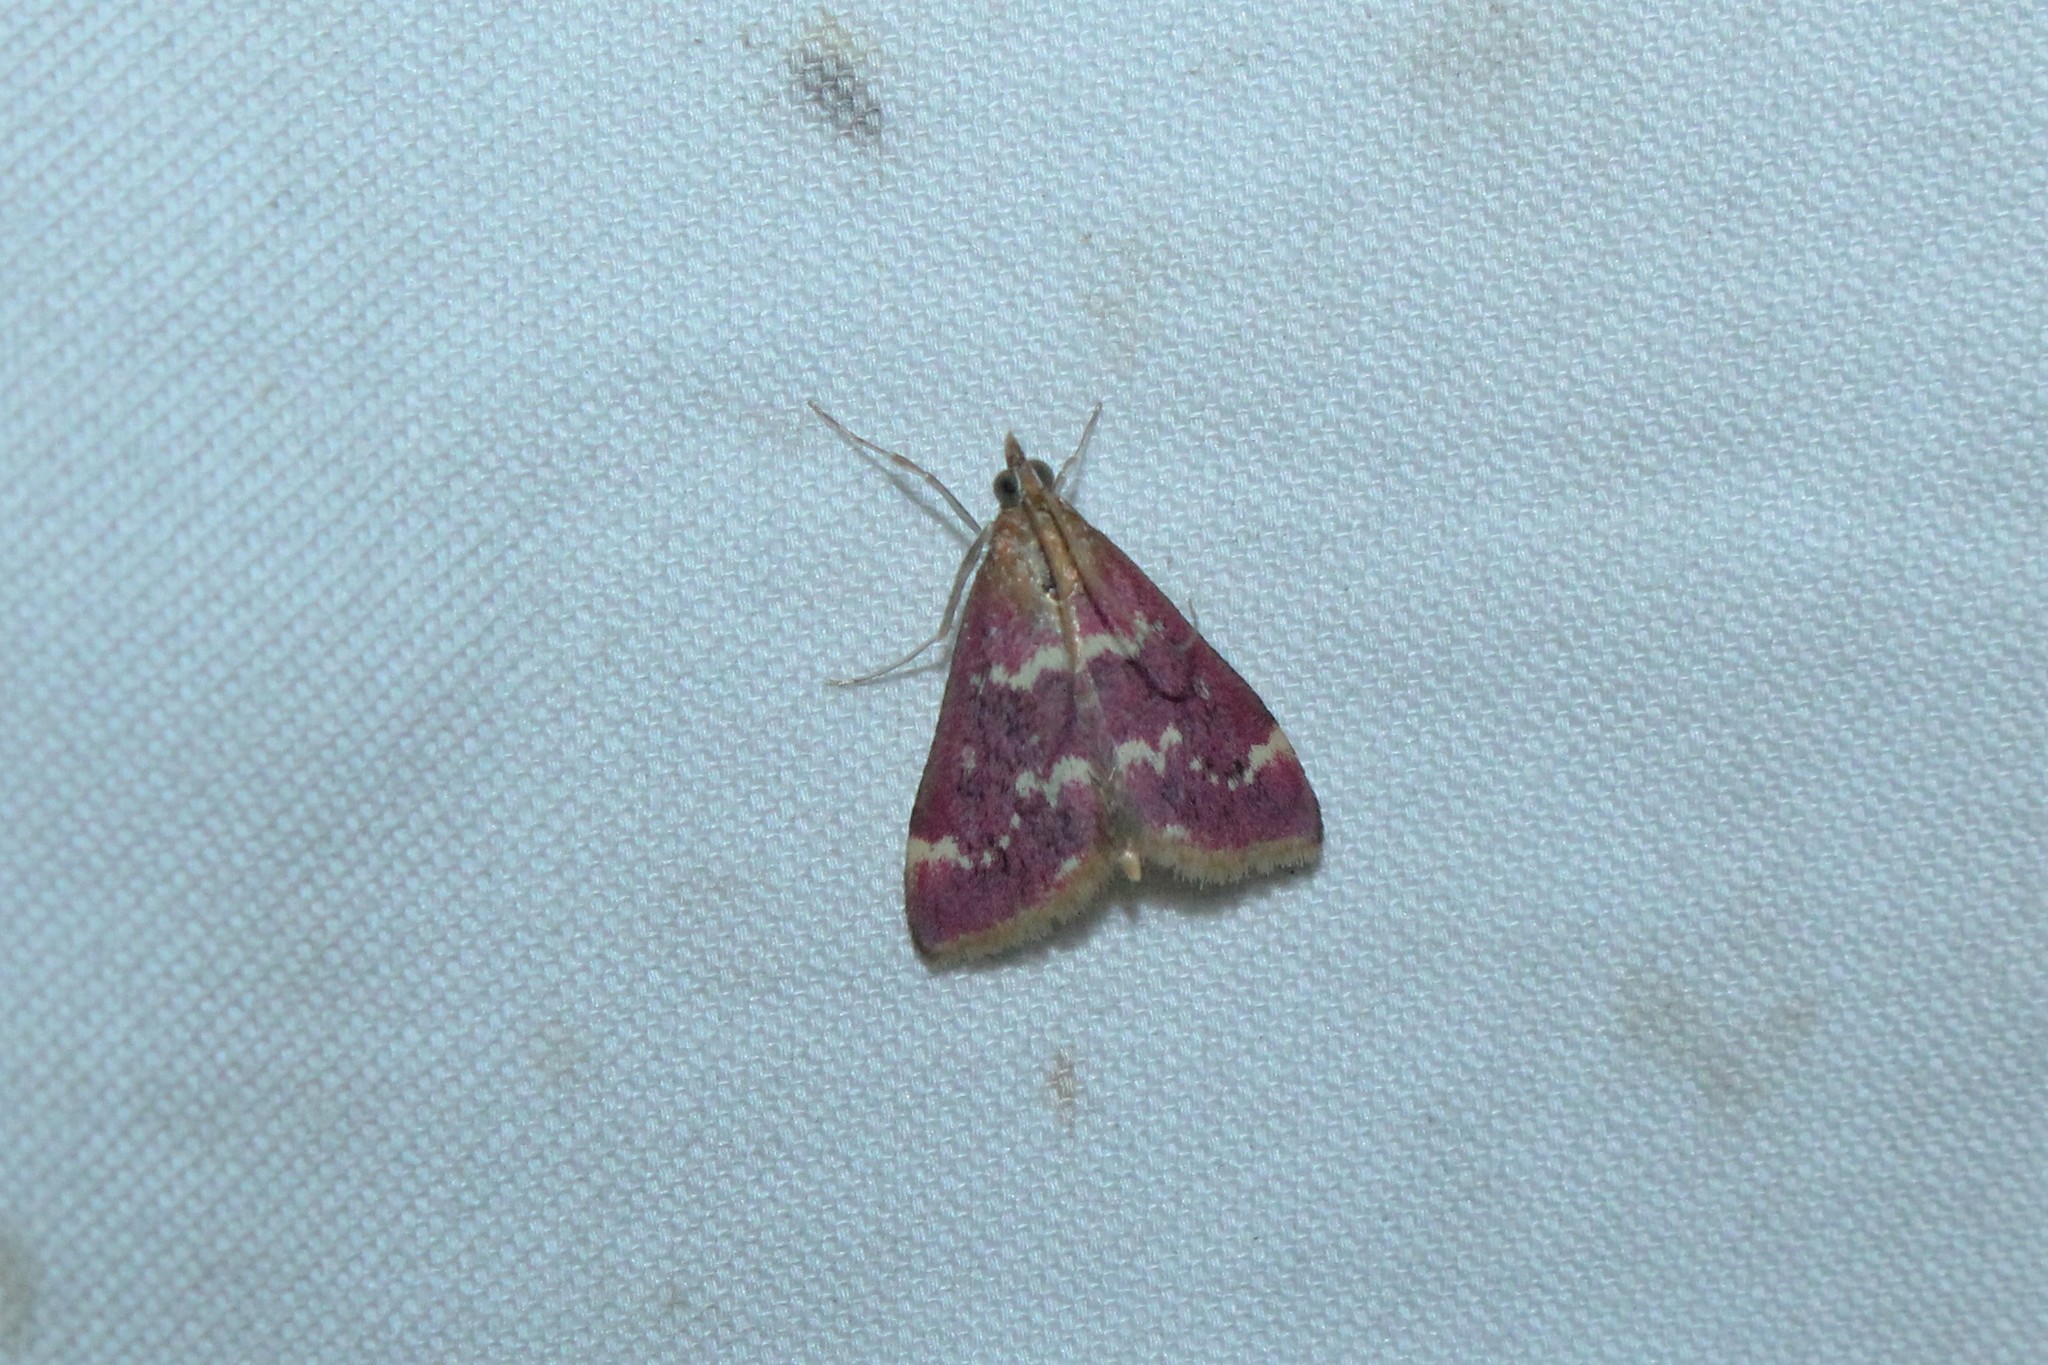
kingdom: Animalia
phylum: Arthropoda
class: Insecta
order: Lepidoptera
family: Crambidae
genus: Pyrausta
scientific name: Pyrausta signatalis
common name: Raspberry pyrausta moth
